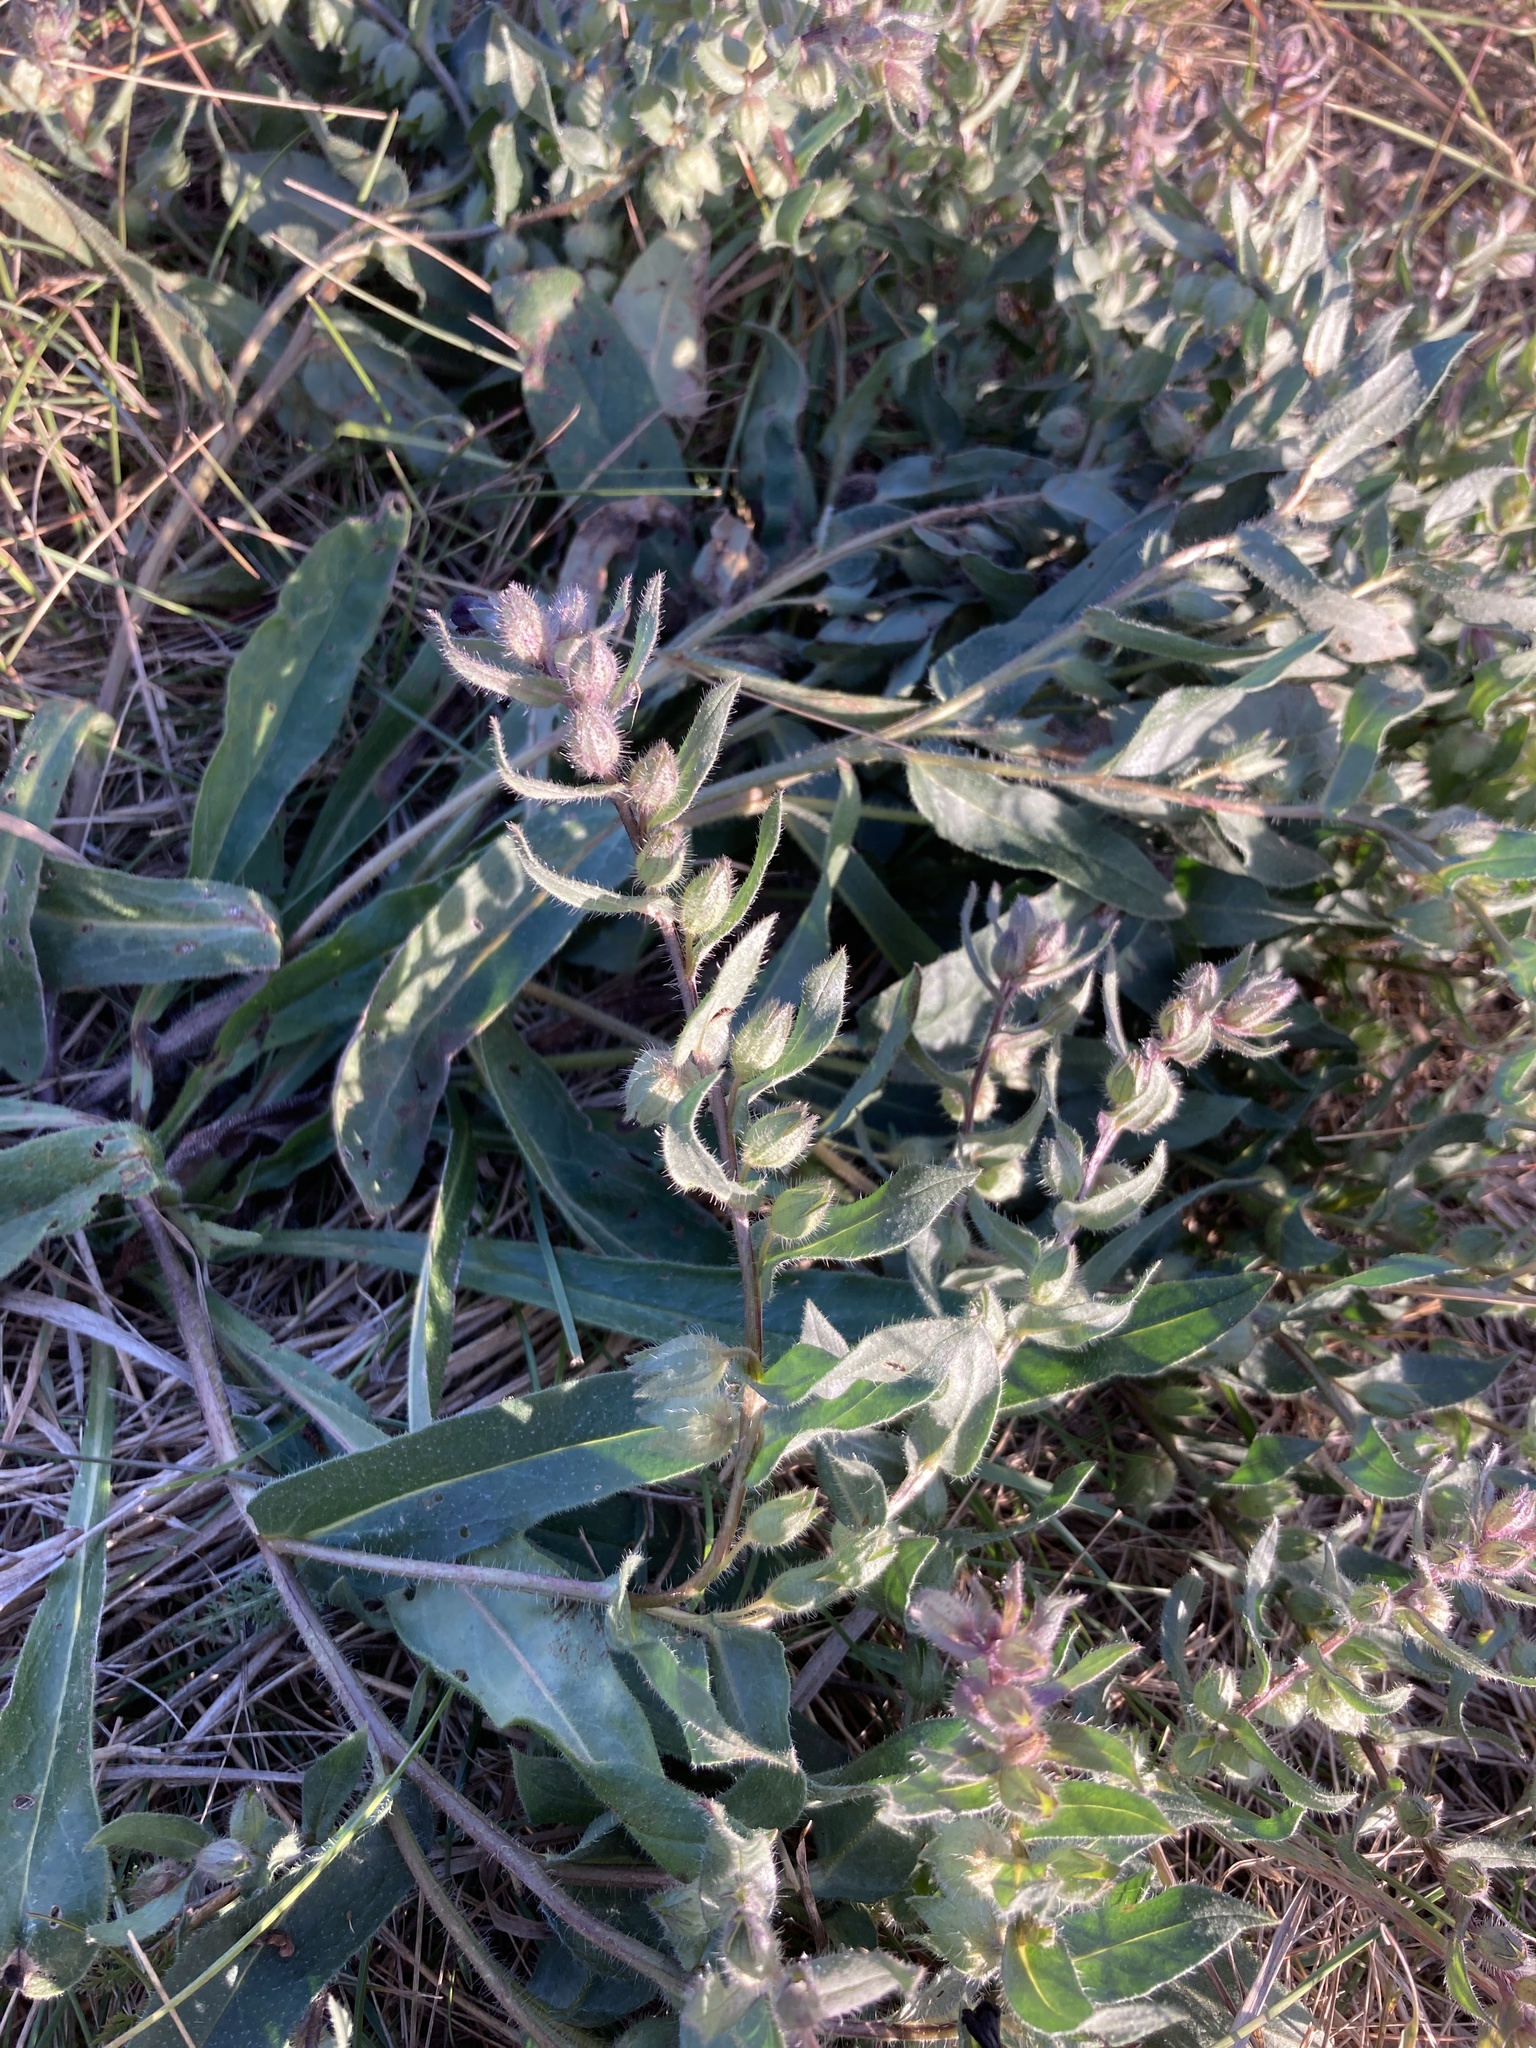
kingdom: Plantae
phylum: Tracheophyta
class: Magnoliopsida
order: Boraginales
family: Boraginaceae
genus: Nonea
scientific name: Nonea pulla
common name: Brown nonea
